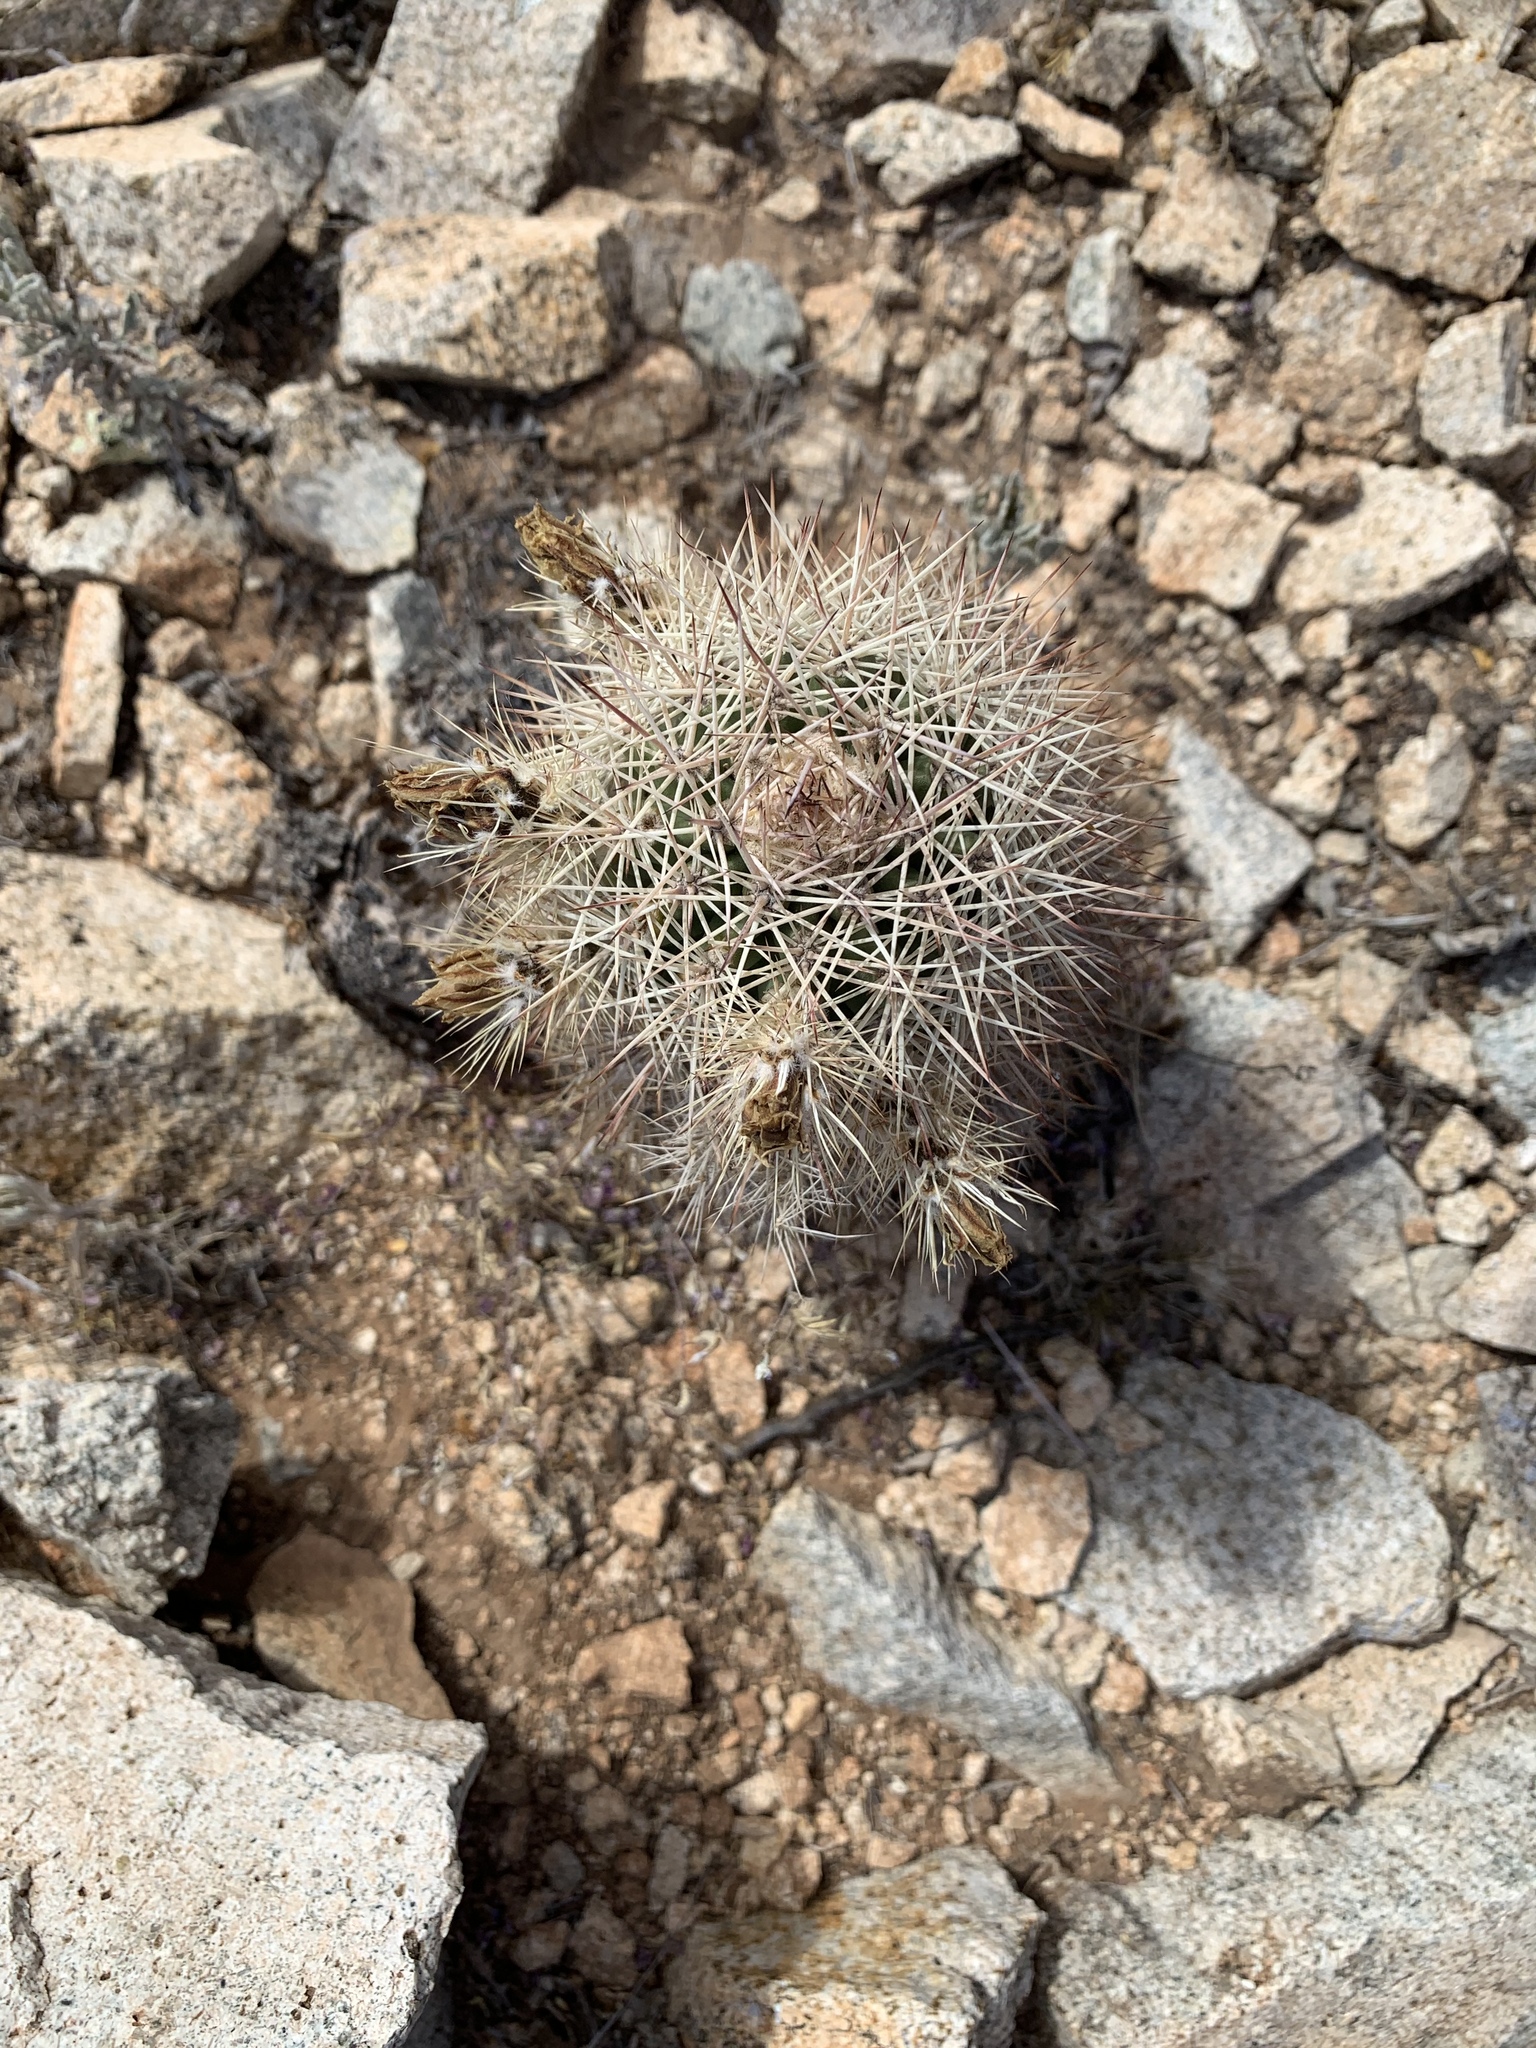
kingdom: Plantae
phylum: Tracheophyta
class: Magnoliopsida
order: Caryophyllales
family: Cactaceae
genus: Echinocereus
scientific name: Echinocereus roetteri
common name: Lloyd's hedgehog cactus
